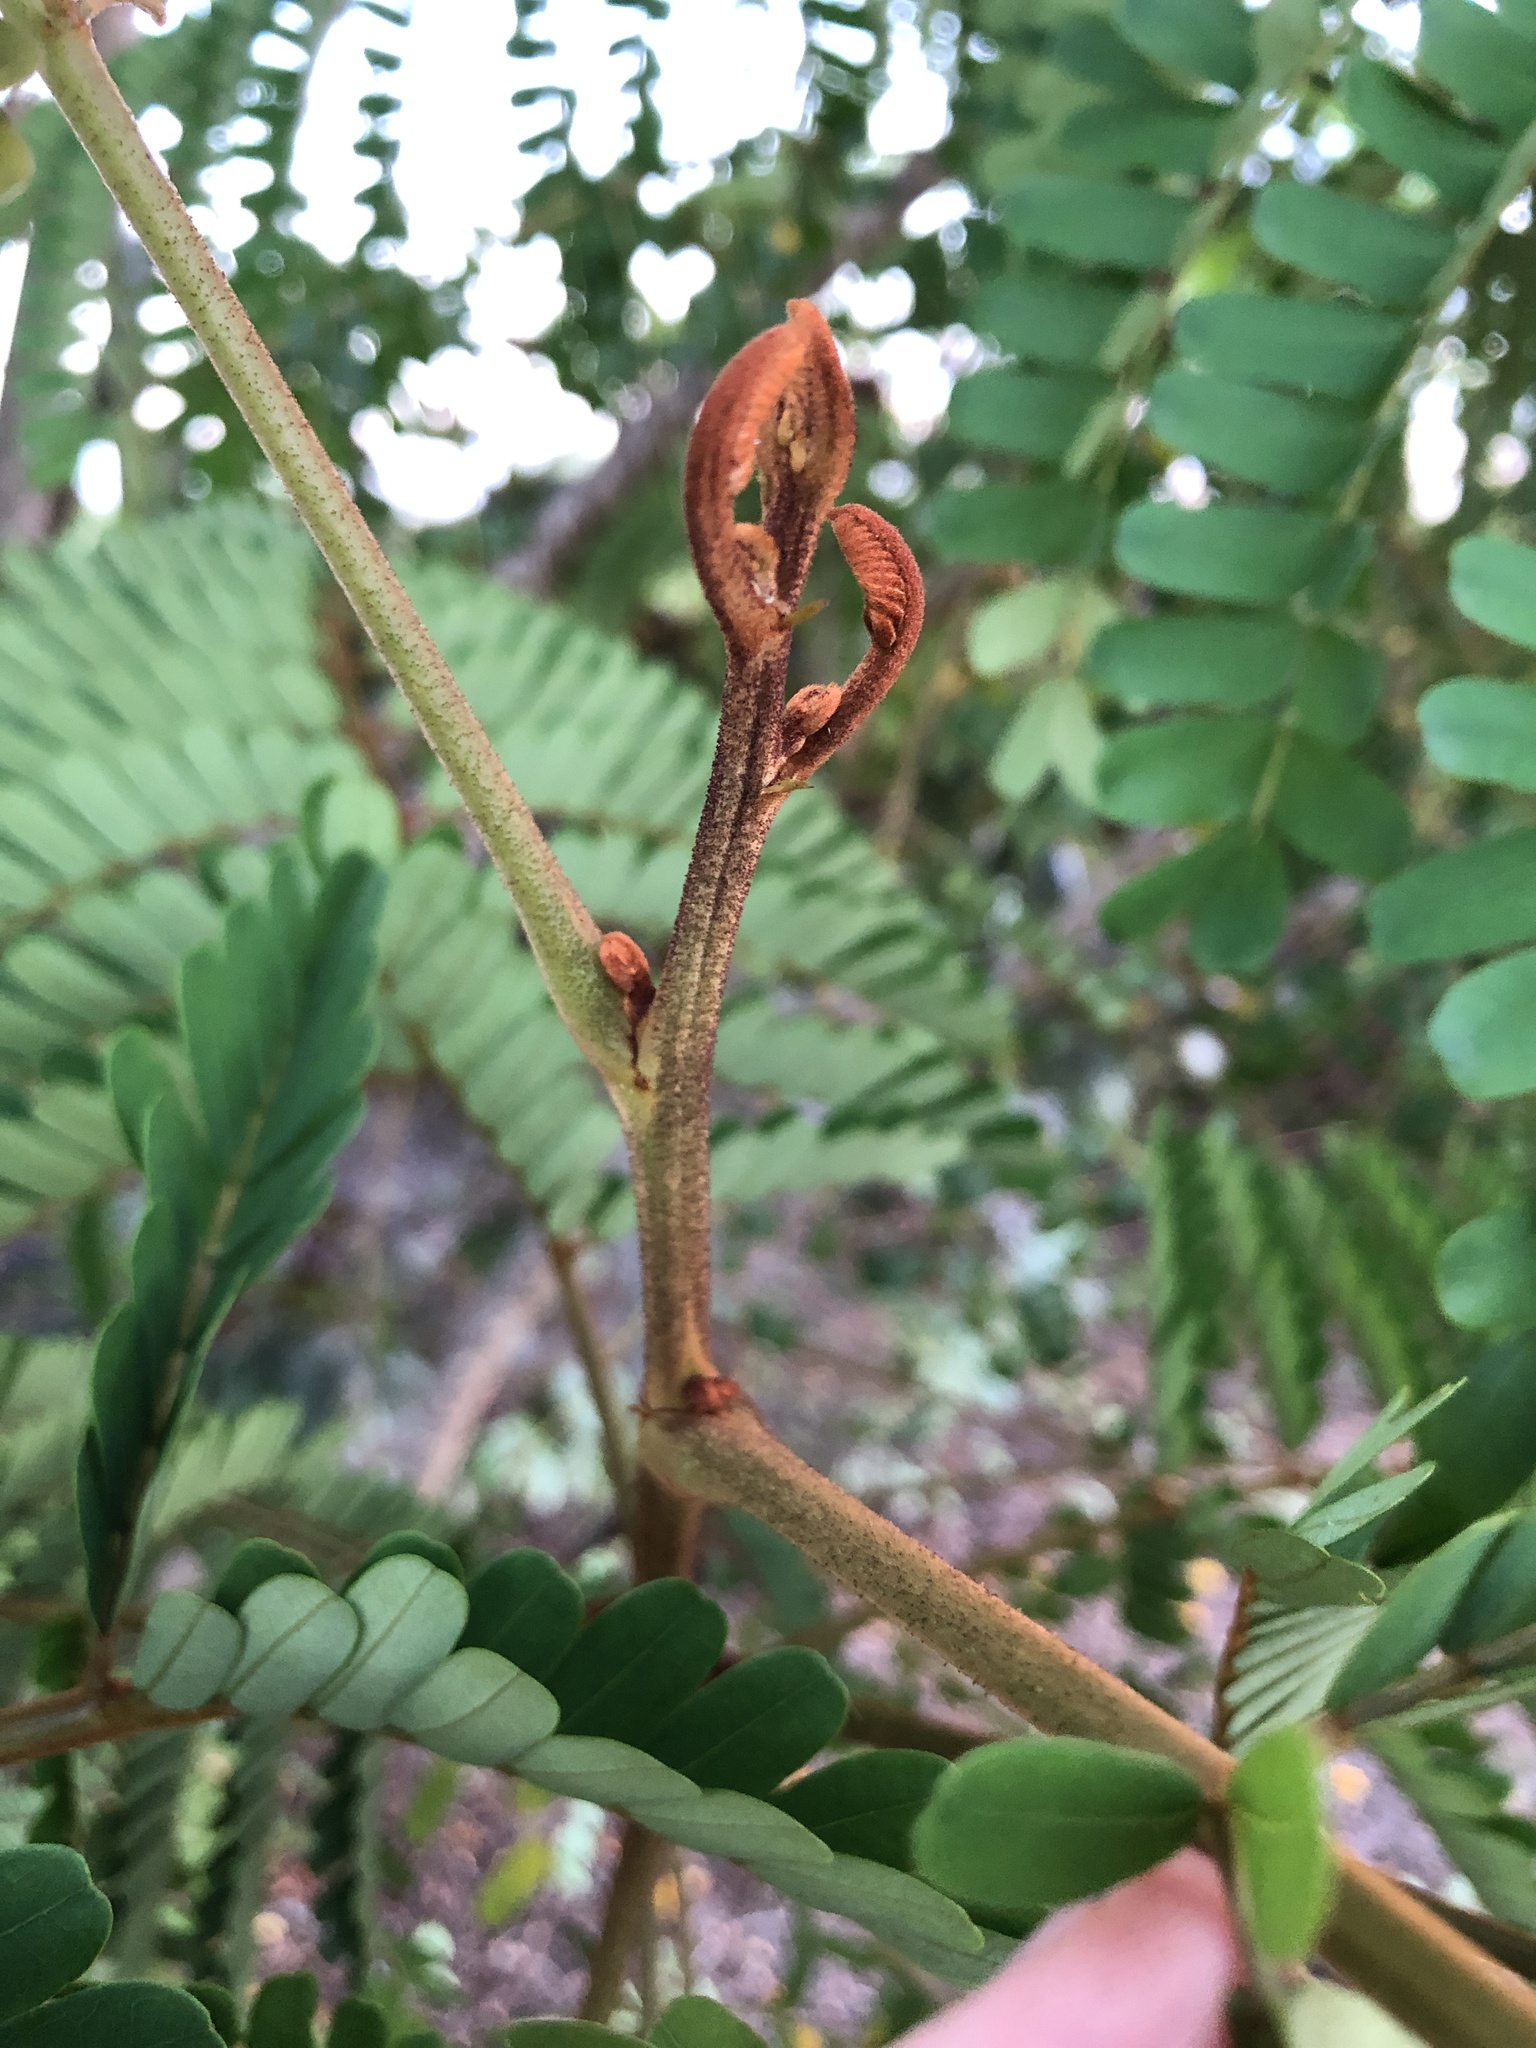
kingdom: Plantae
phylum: Tracheophyta
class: Magnoliopsida
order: Fabales
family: Fabaceae
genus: Peltophorum
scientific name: Peltophorum pterocarpum
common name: Yellow flame
